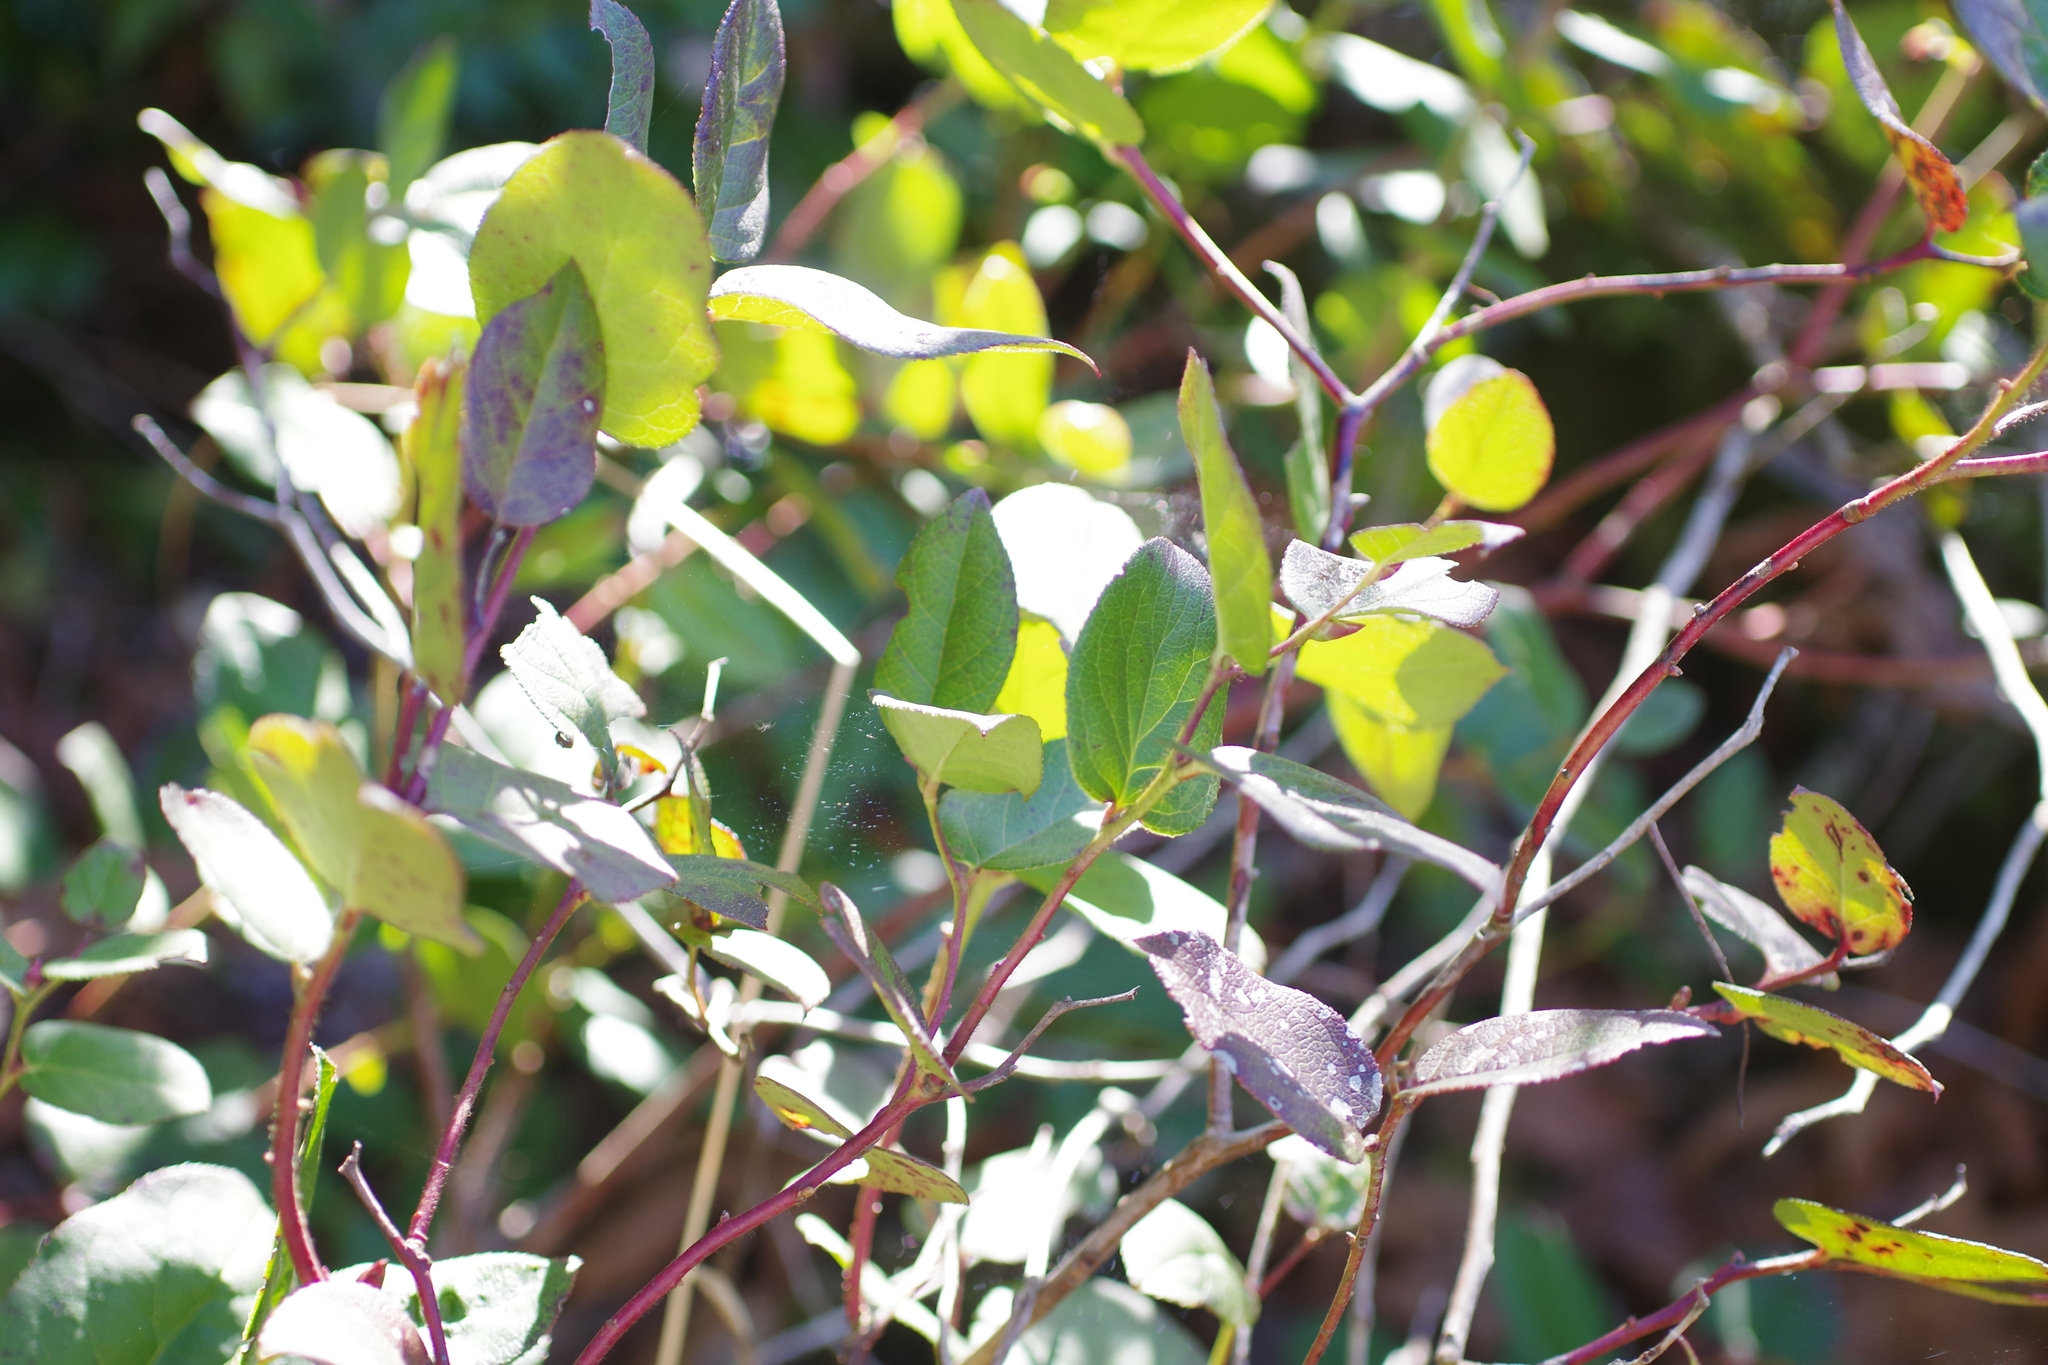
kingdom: Plantae
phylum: Tracheophyta
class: Magnoliopsida
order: Ericales
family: Ericaceae
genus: Gaultheria
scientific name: Gaultheria shallon
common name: Shallon
